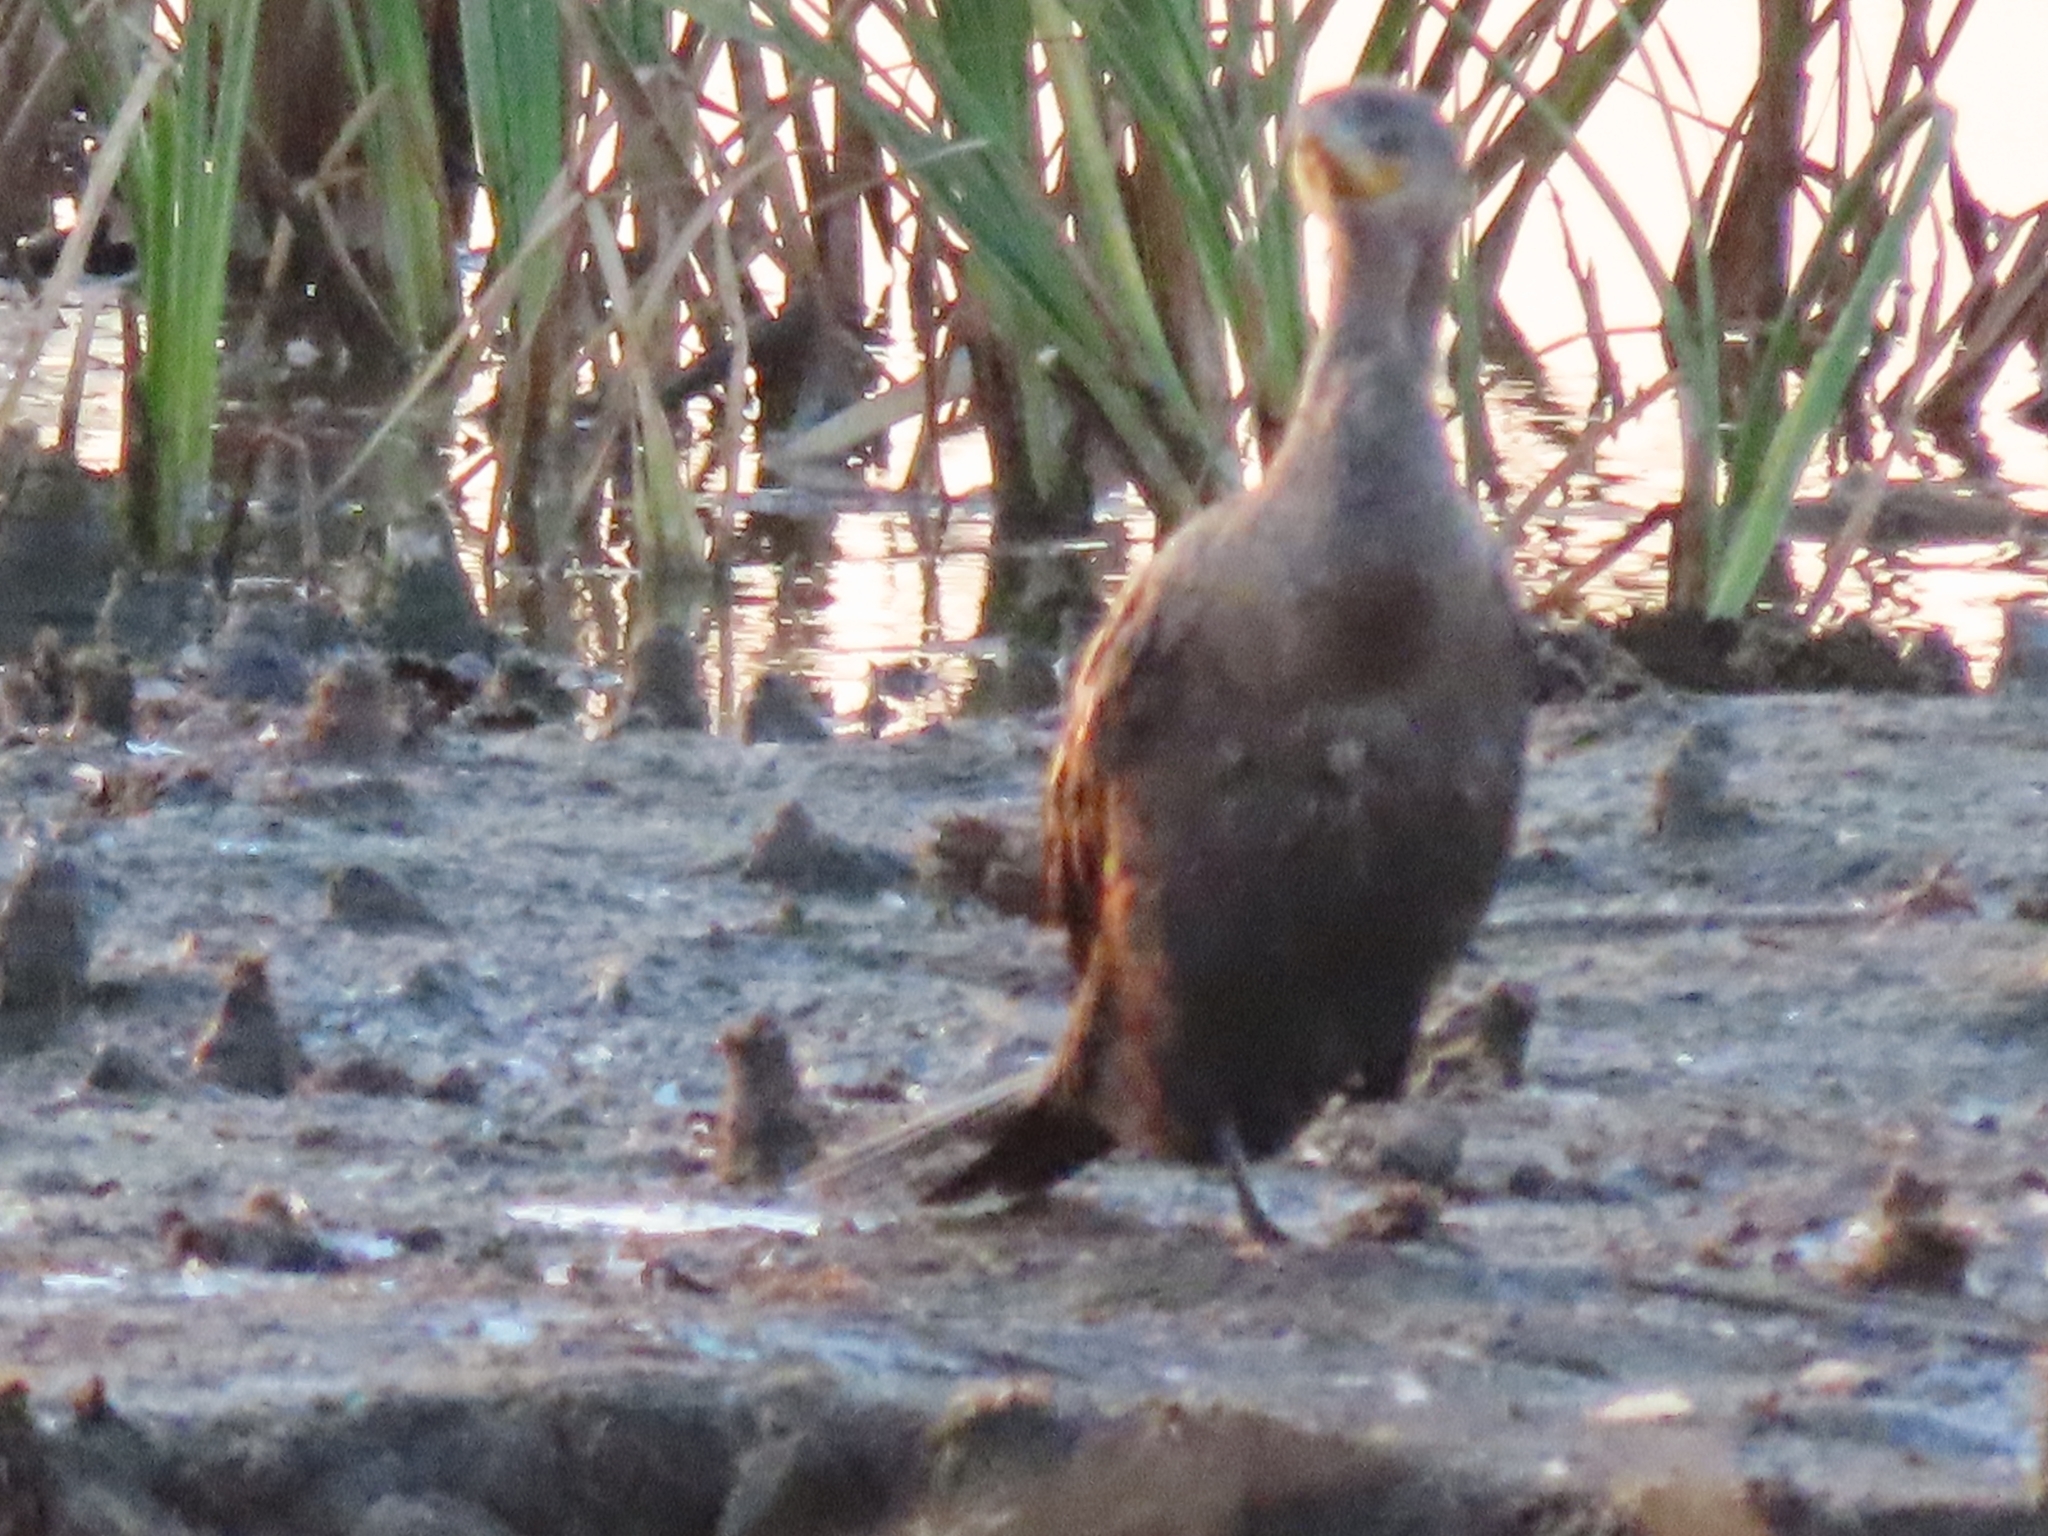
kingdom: Animalia
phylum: Chordata
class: Aves
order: Suliformes
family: Phalacrocoracidae
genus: Phalacrocorax
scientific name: Phalacrocorax auritus
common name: Double-crested cormorant
